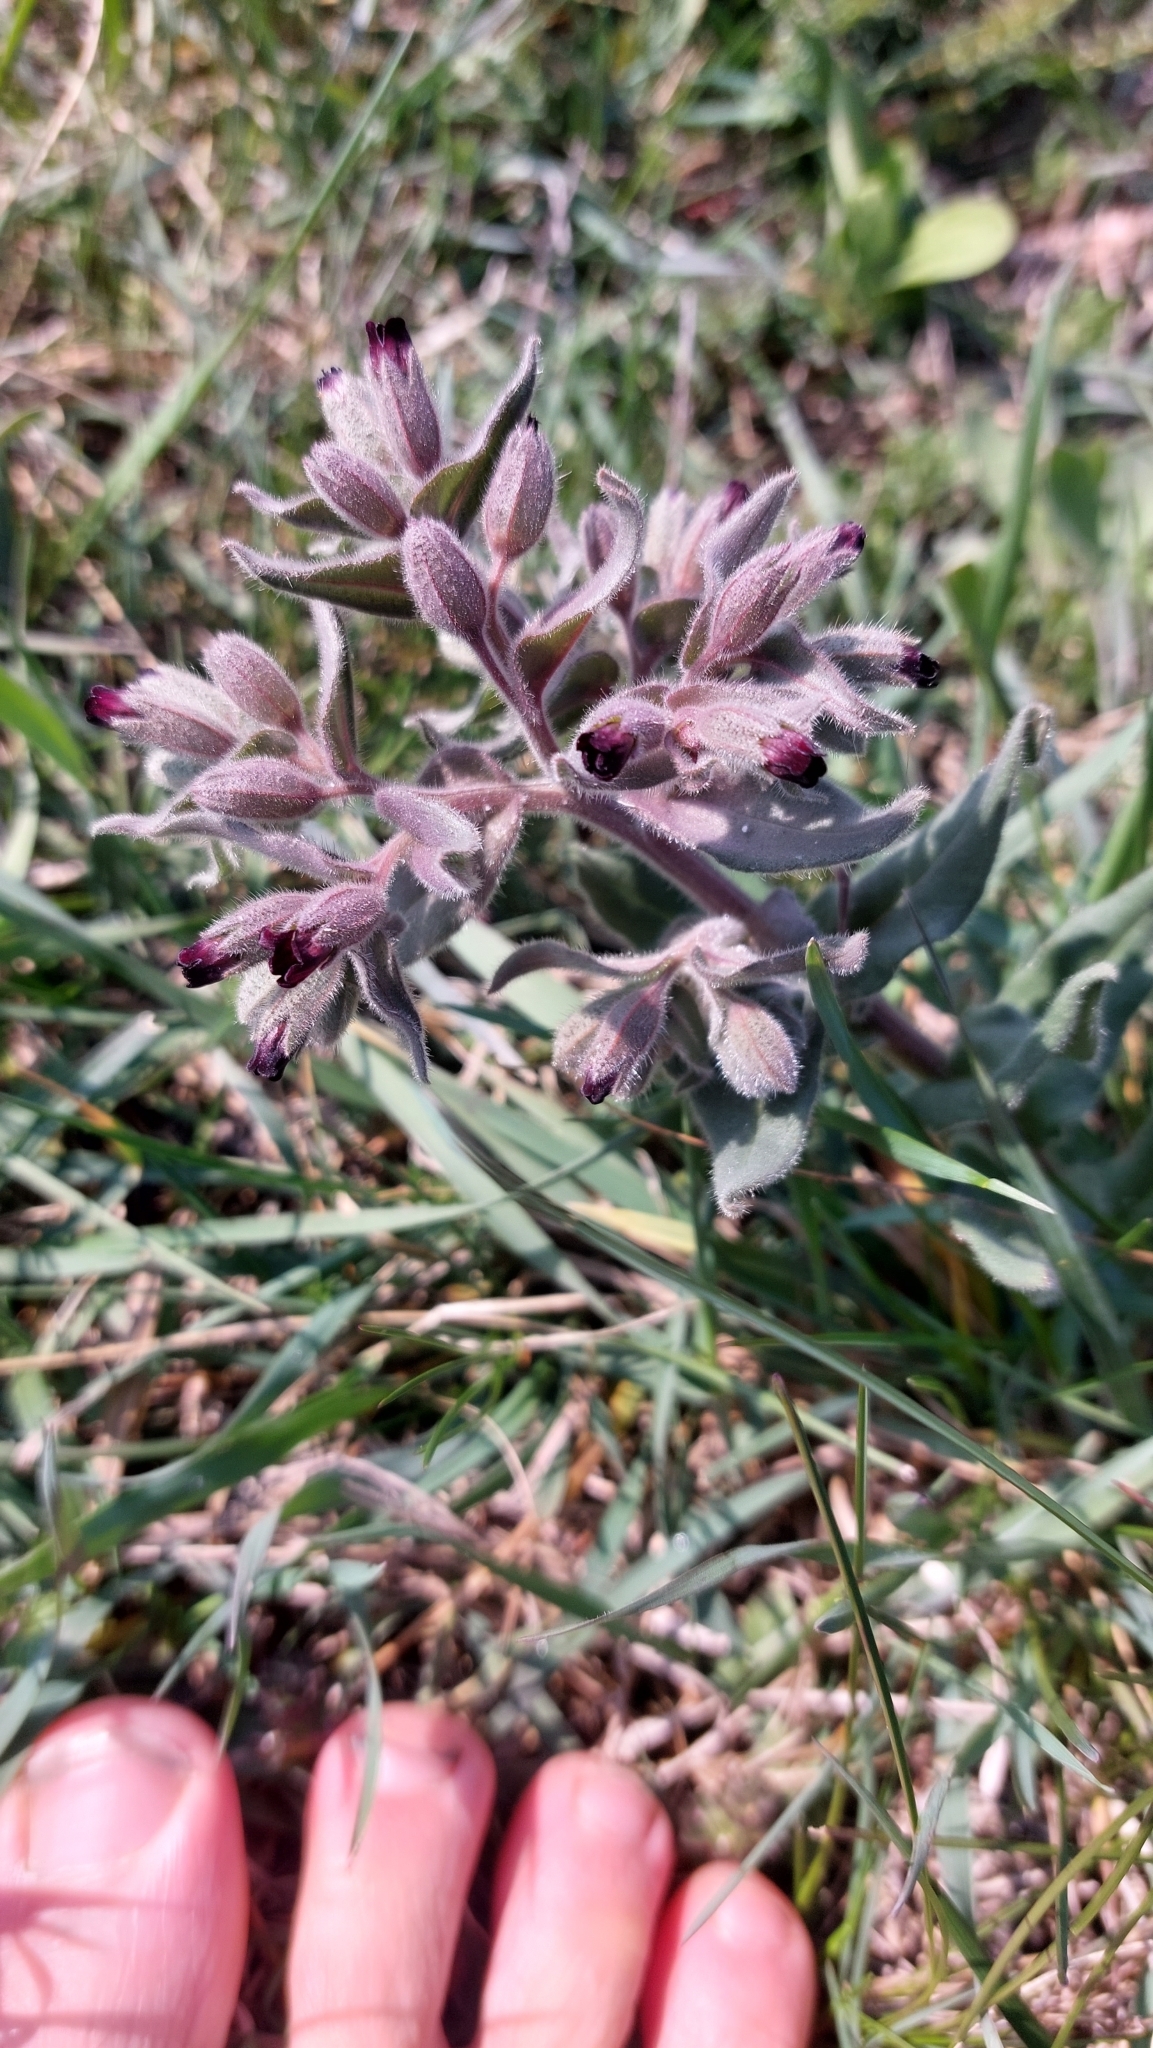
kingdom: Plantae
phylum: Tracheophyta
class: Magnoliopsida
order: Boraginales
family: Boraginaceae
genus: Nonea
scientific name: Nonea pulla
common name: Brown nonea
